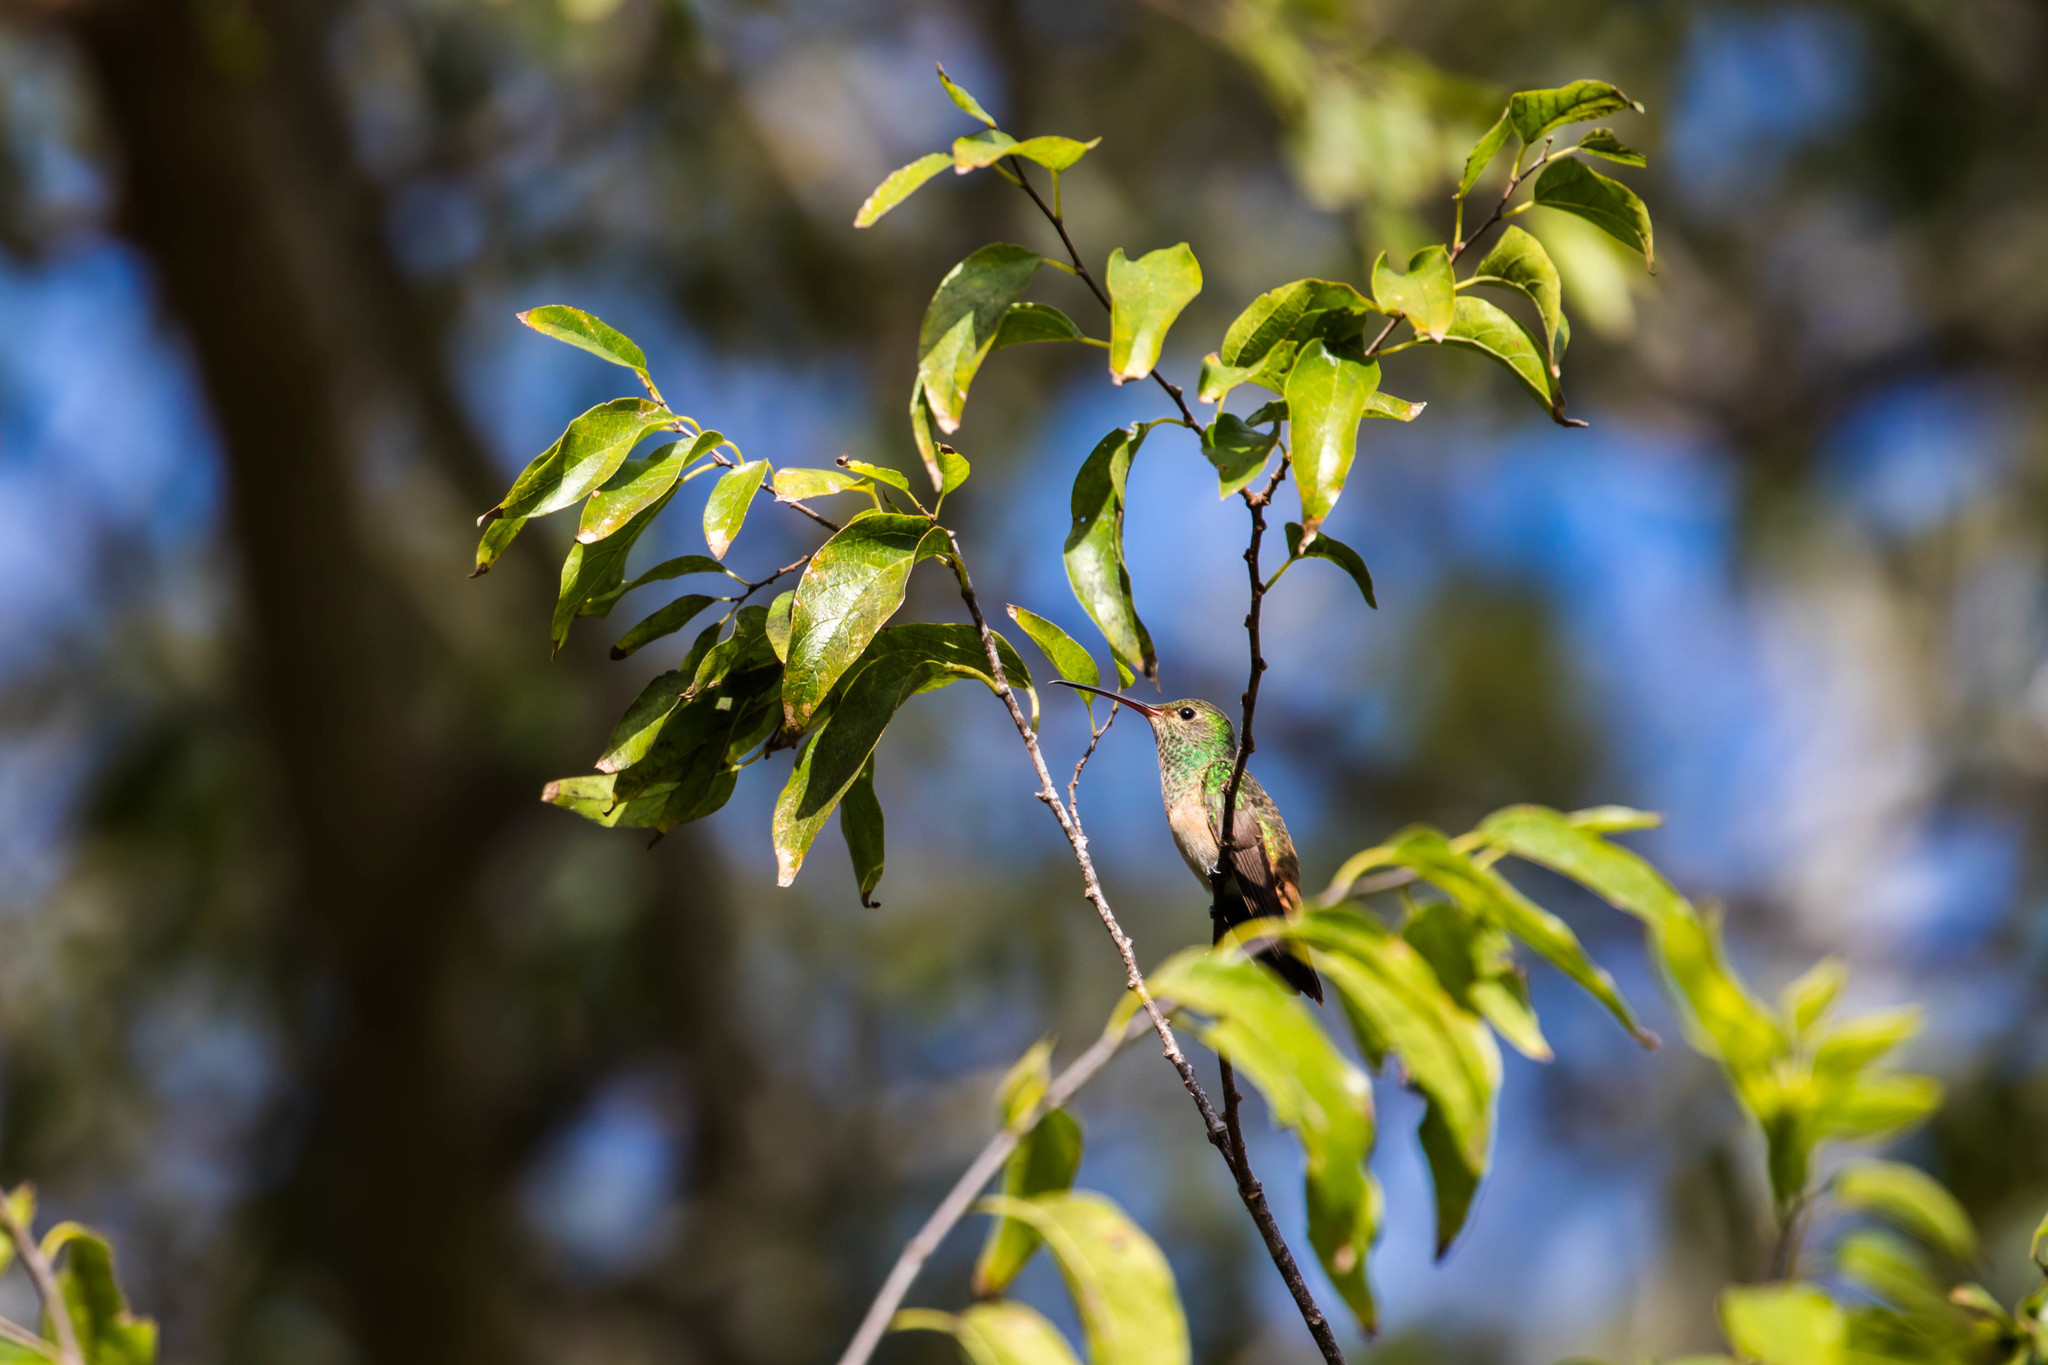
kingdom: Animalia
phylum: Chordata
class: Aves
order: Apodiformes
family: Trochilidae
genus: Amazilia
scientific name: Amazilia yucatanensis
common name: Buff-bellied hummingbird
